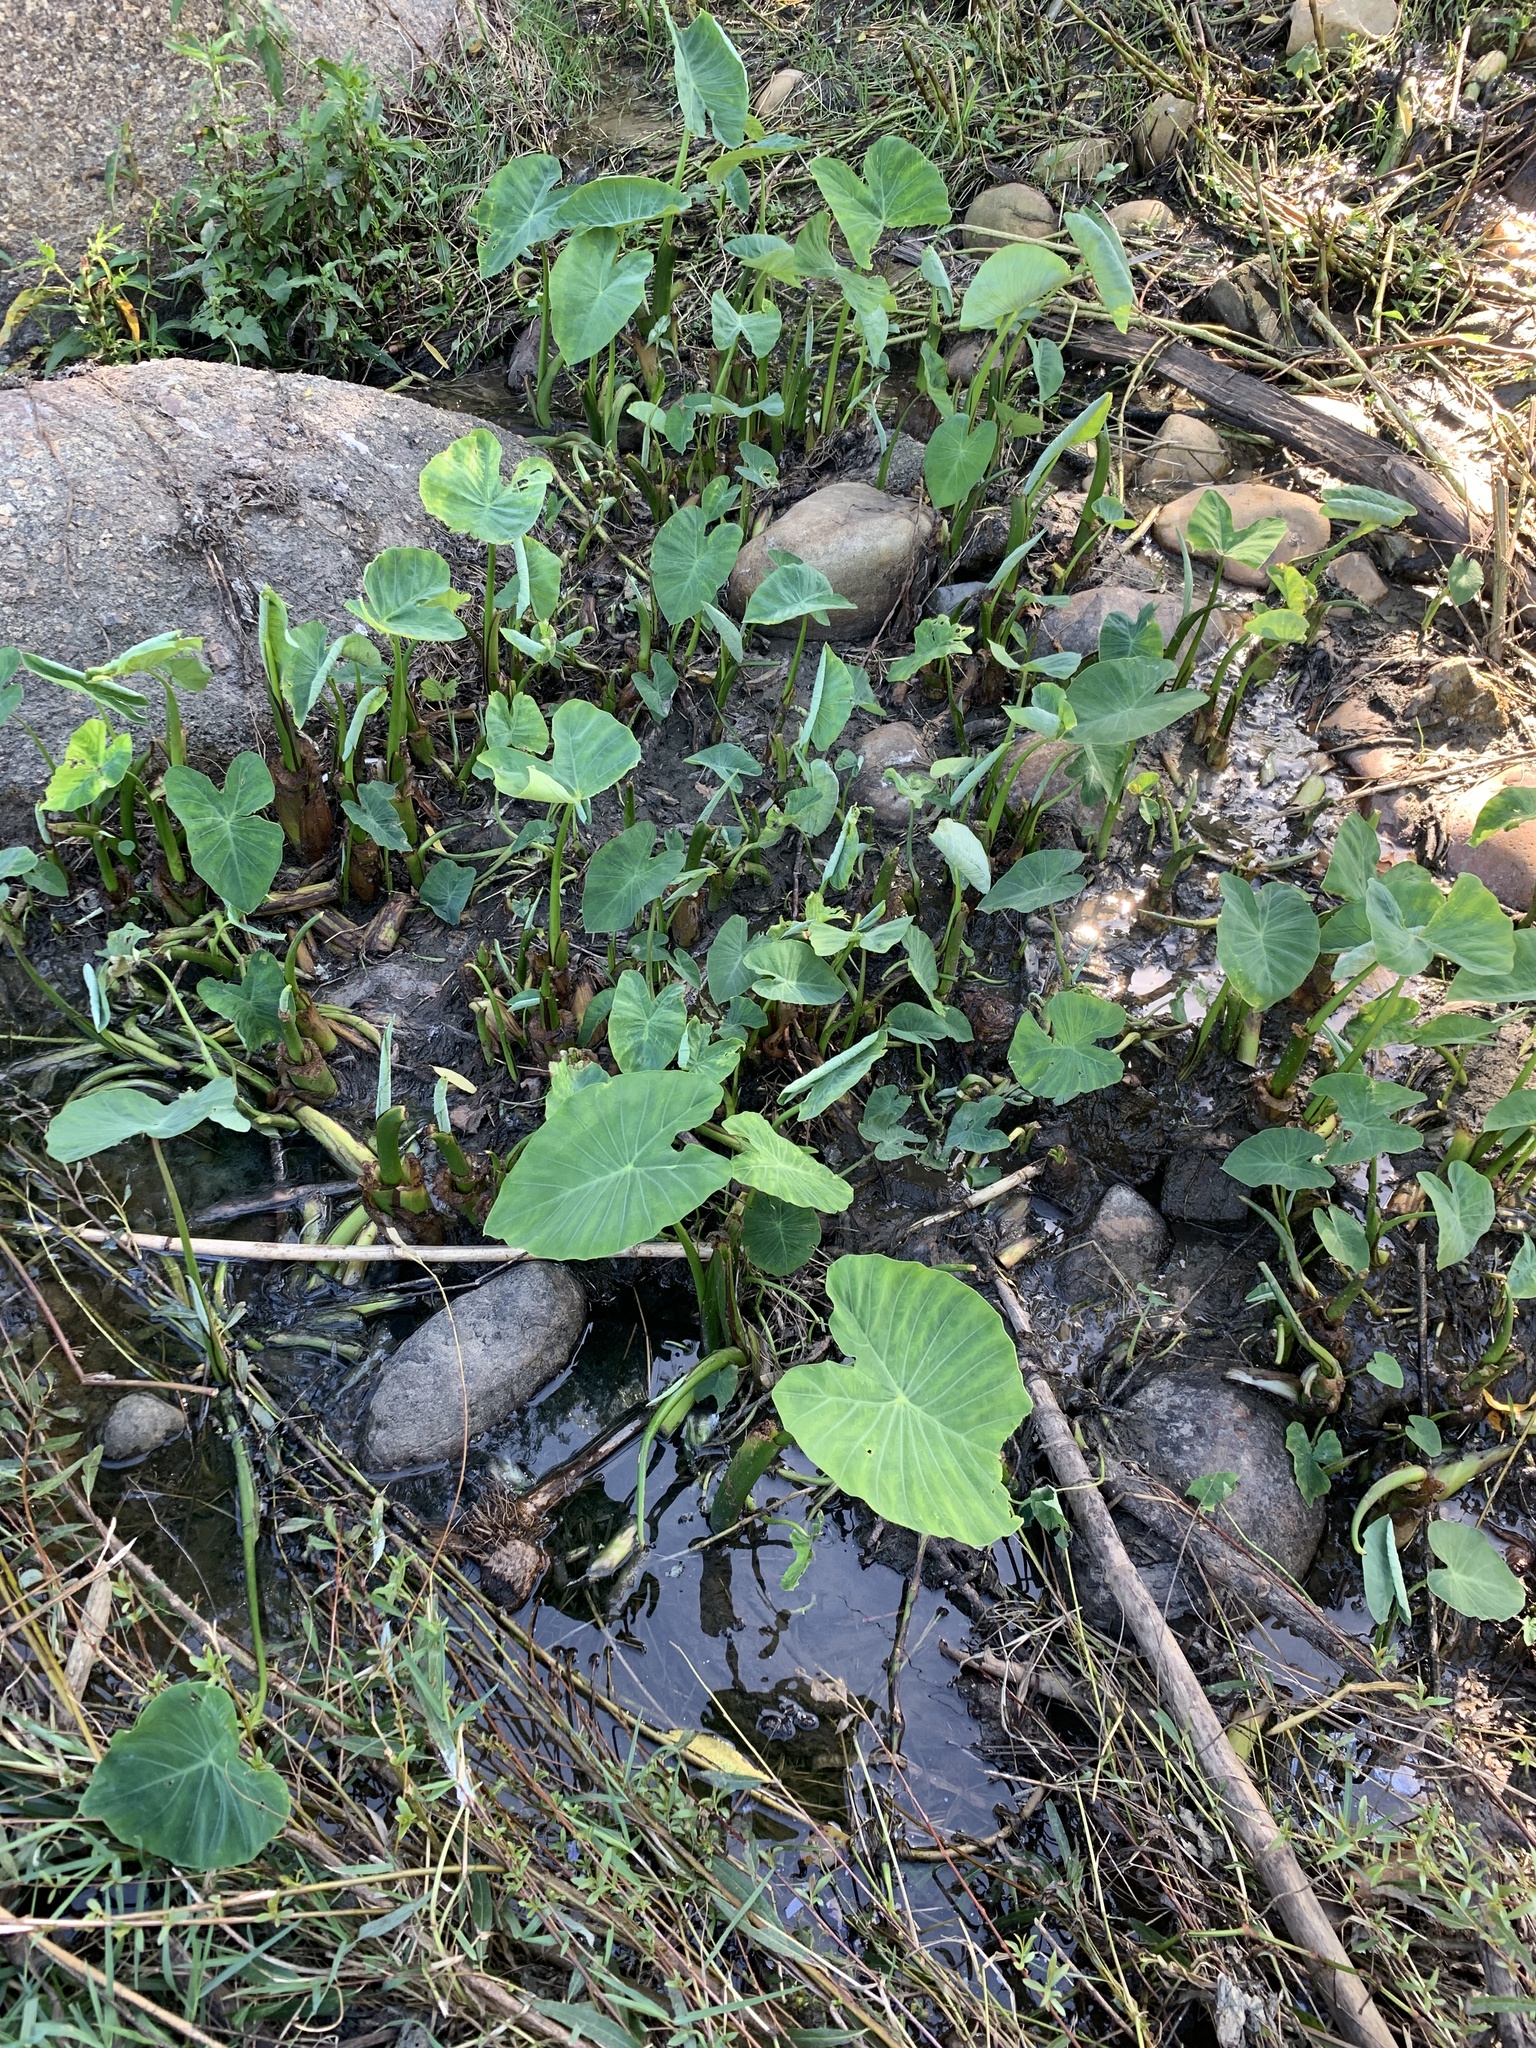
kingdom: Plantae
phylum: Tracheophyta
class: Liliopsida
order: Alismatales
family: Araceae
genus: Colocasia
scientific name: Colocasia esculenta
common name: Taro
